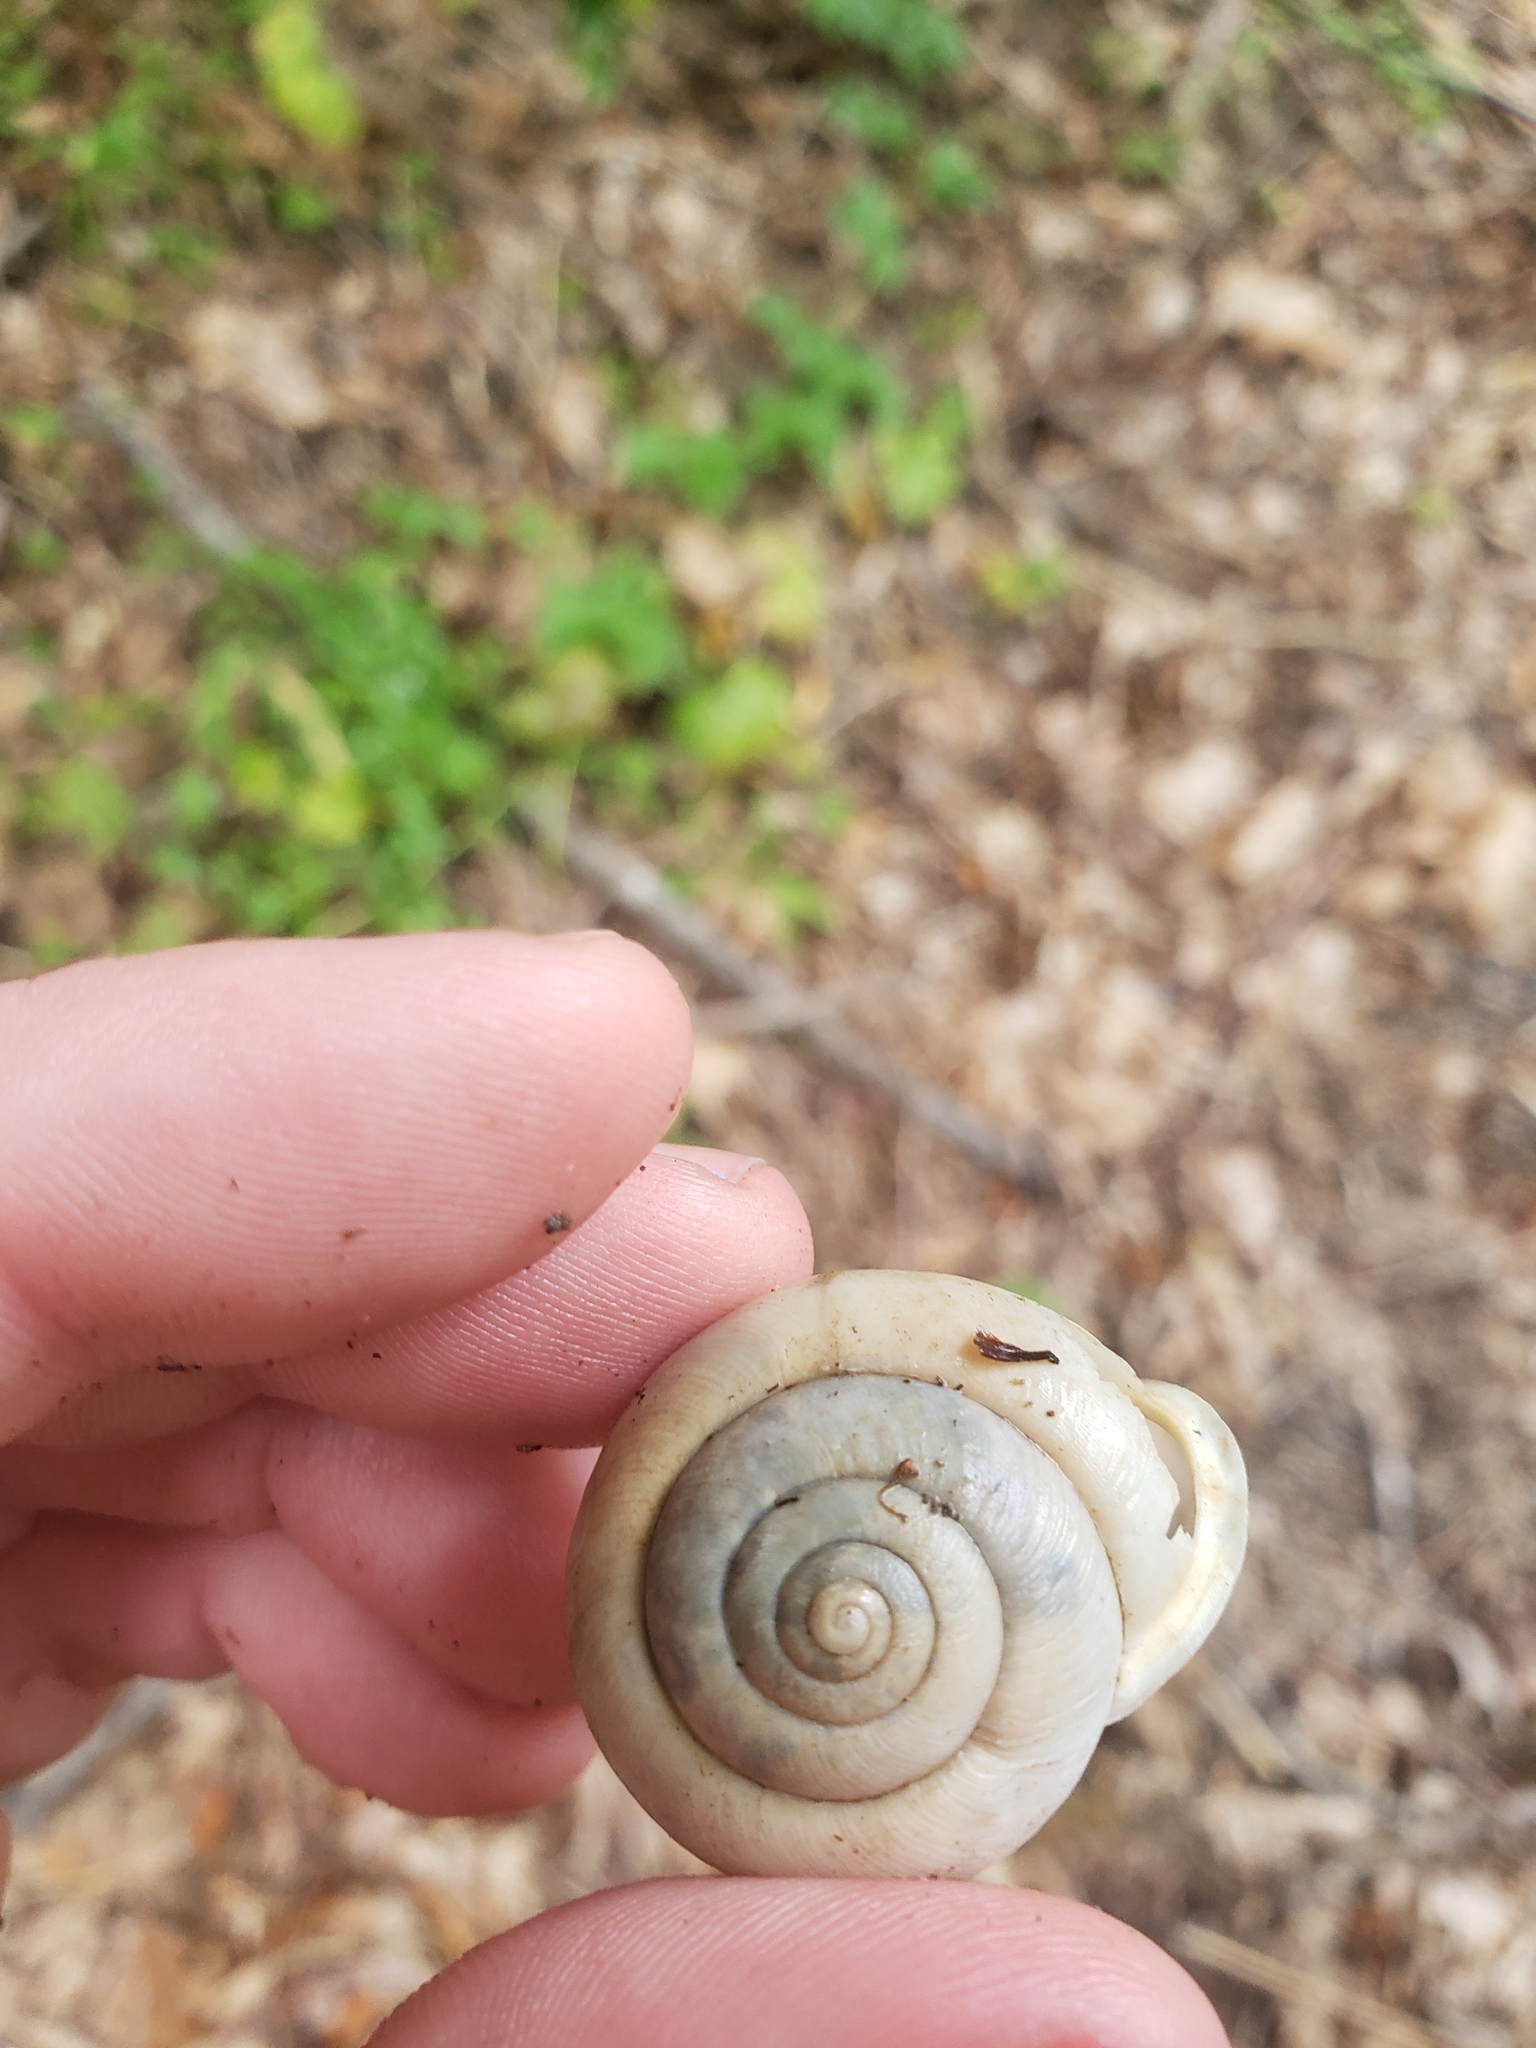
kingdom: Animalia
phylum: Mollusca
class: Gastropoda
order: Stylommatophora
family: Polygyridae
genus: Neohelix
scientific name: Neohelix albolabris
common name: Eastern whitelip
